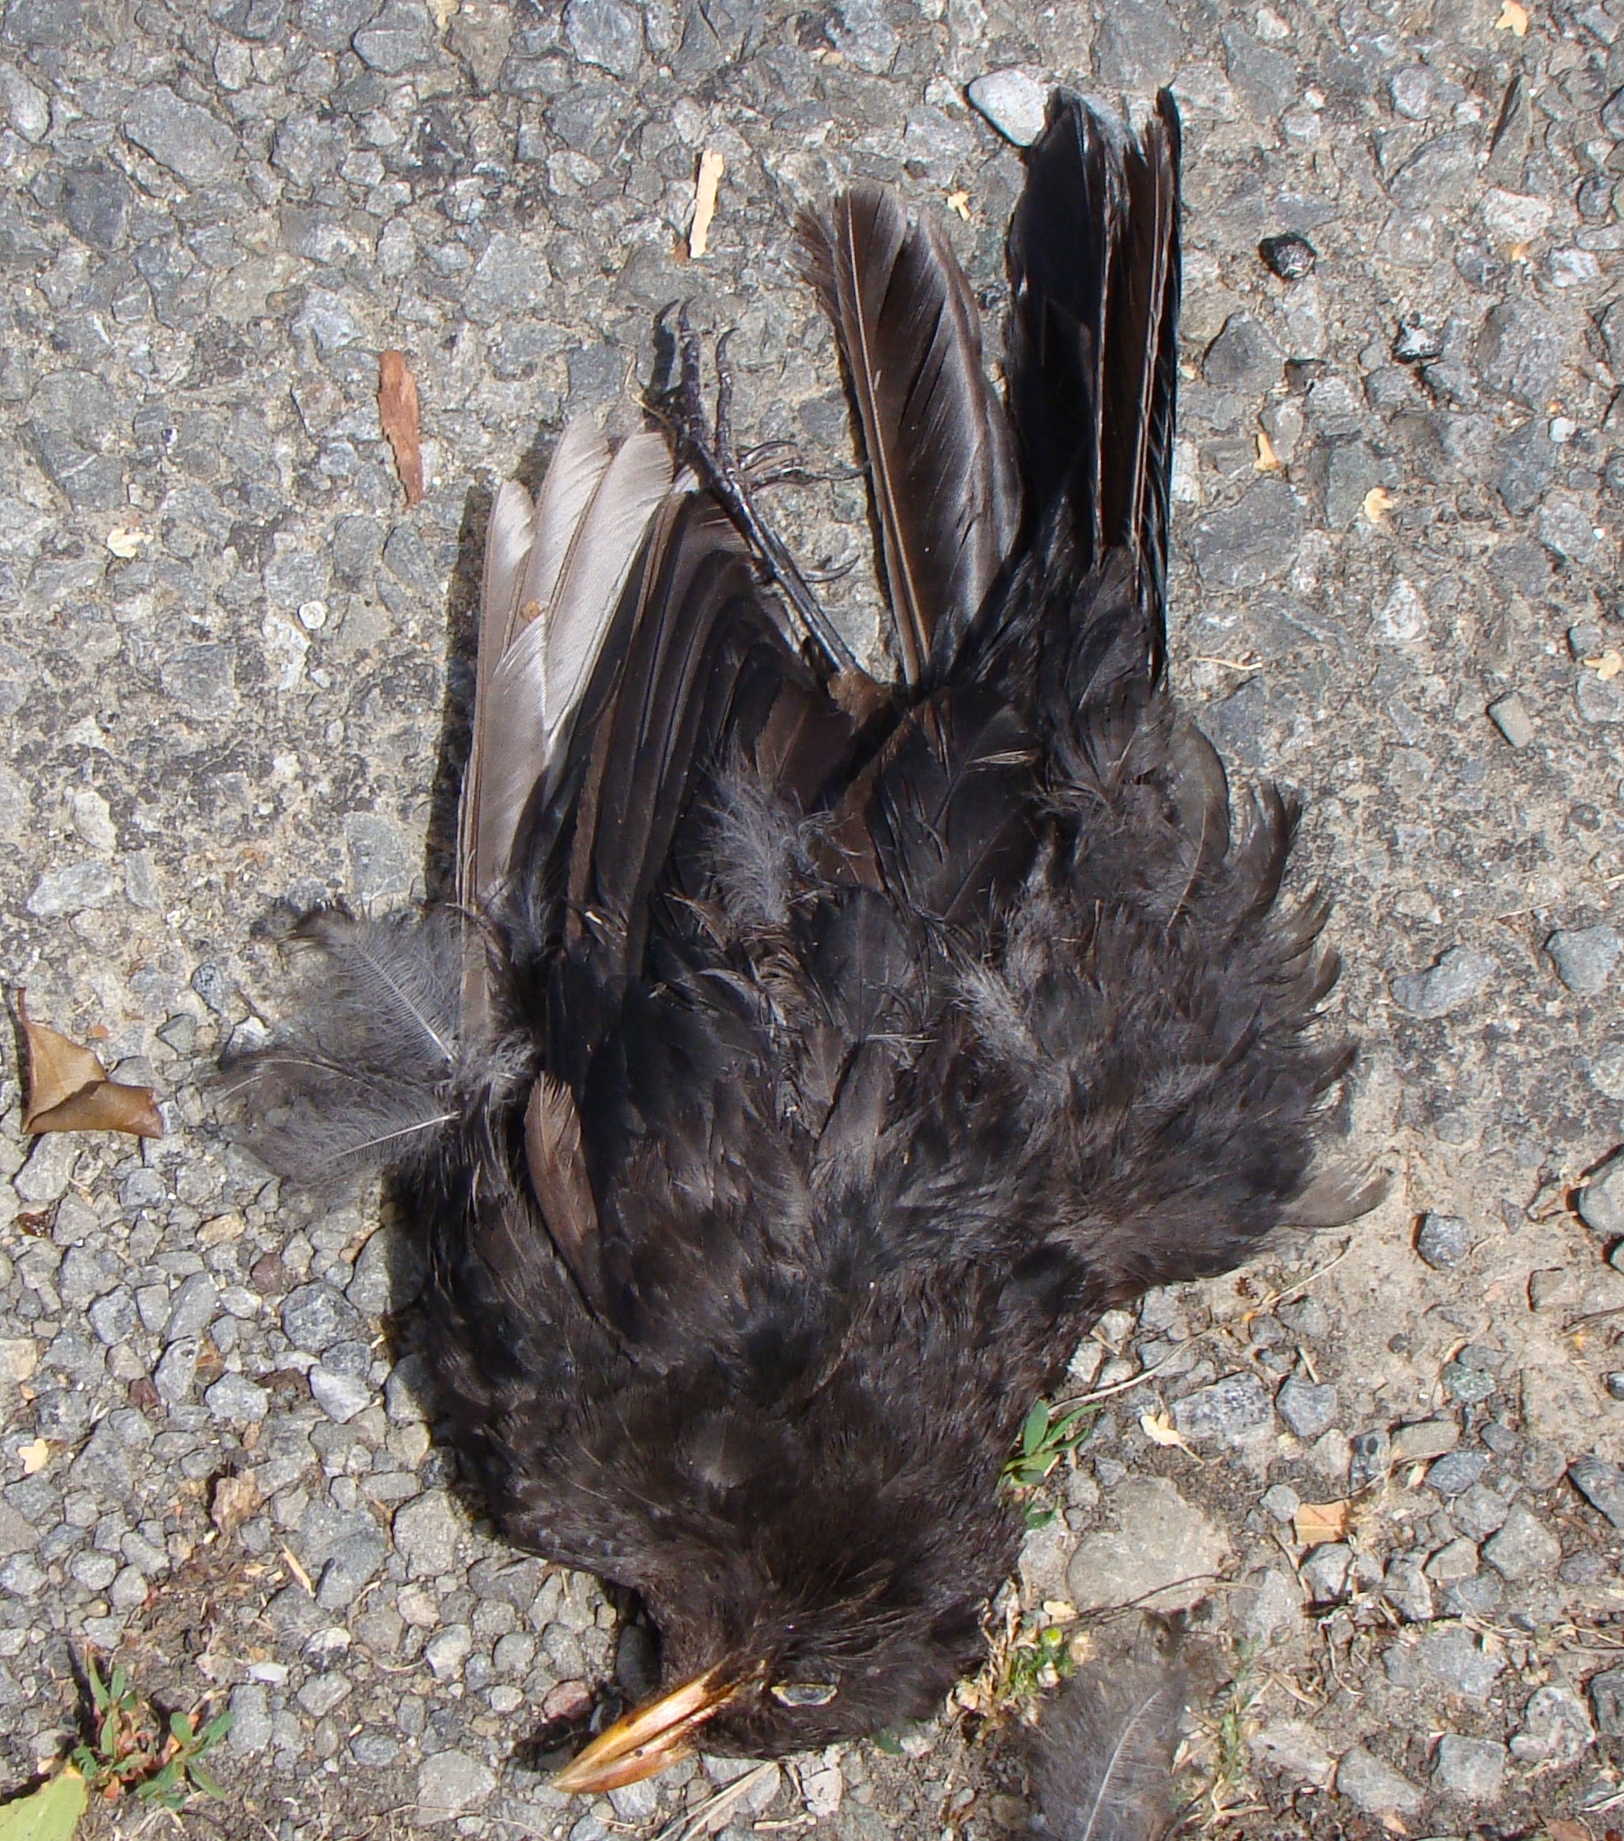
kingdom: Animalia
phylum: Chordata
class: Aves
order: Passeriformes
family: Turdidae
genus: Turdus
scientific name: Turdus merula
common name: Common blackbird
